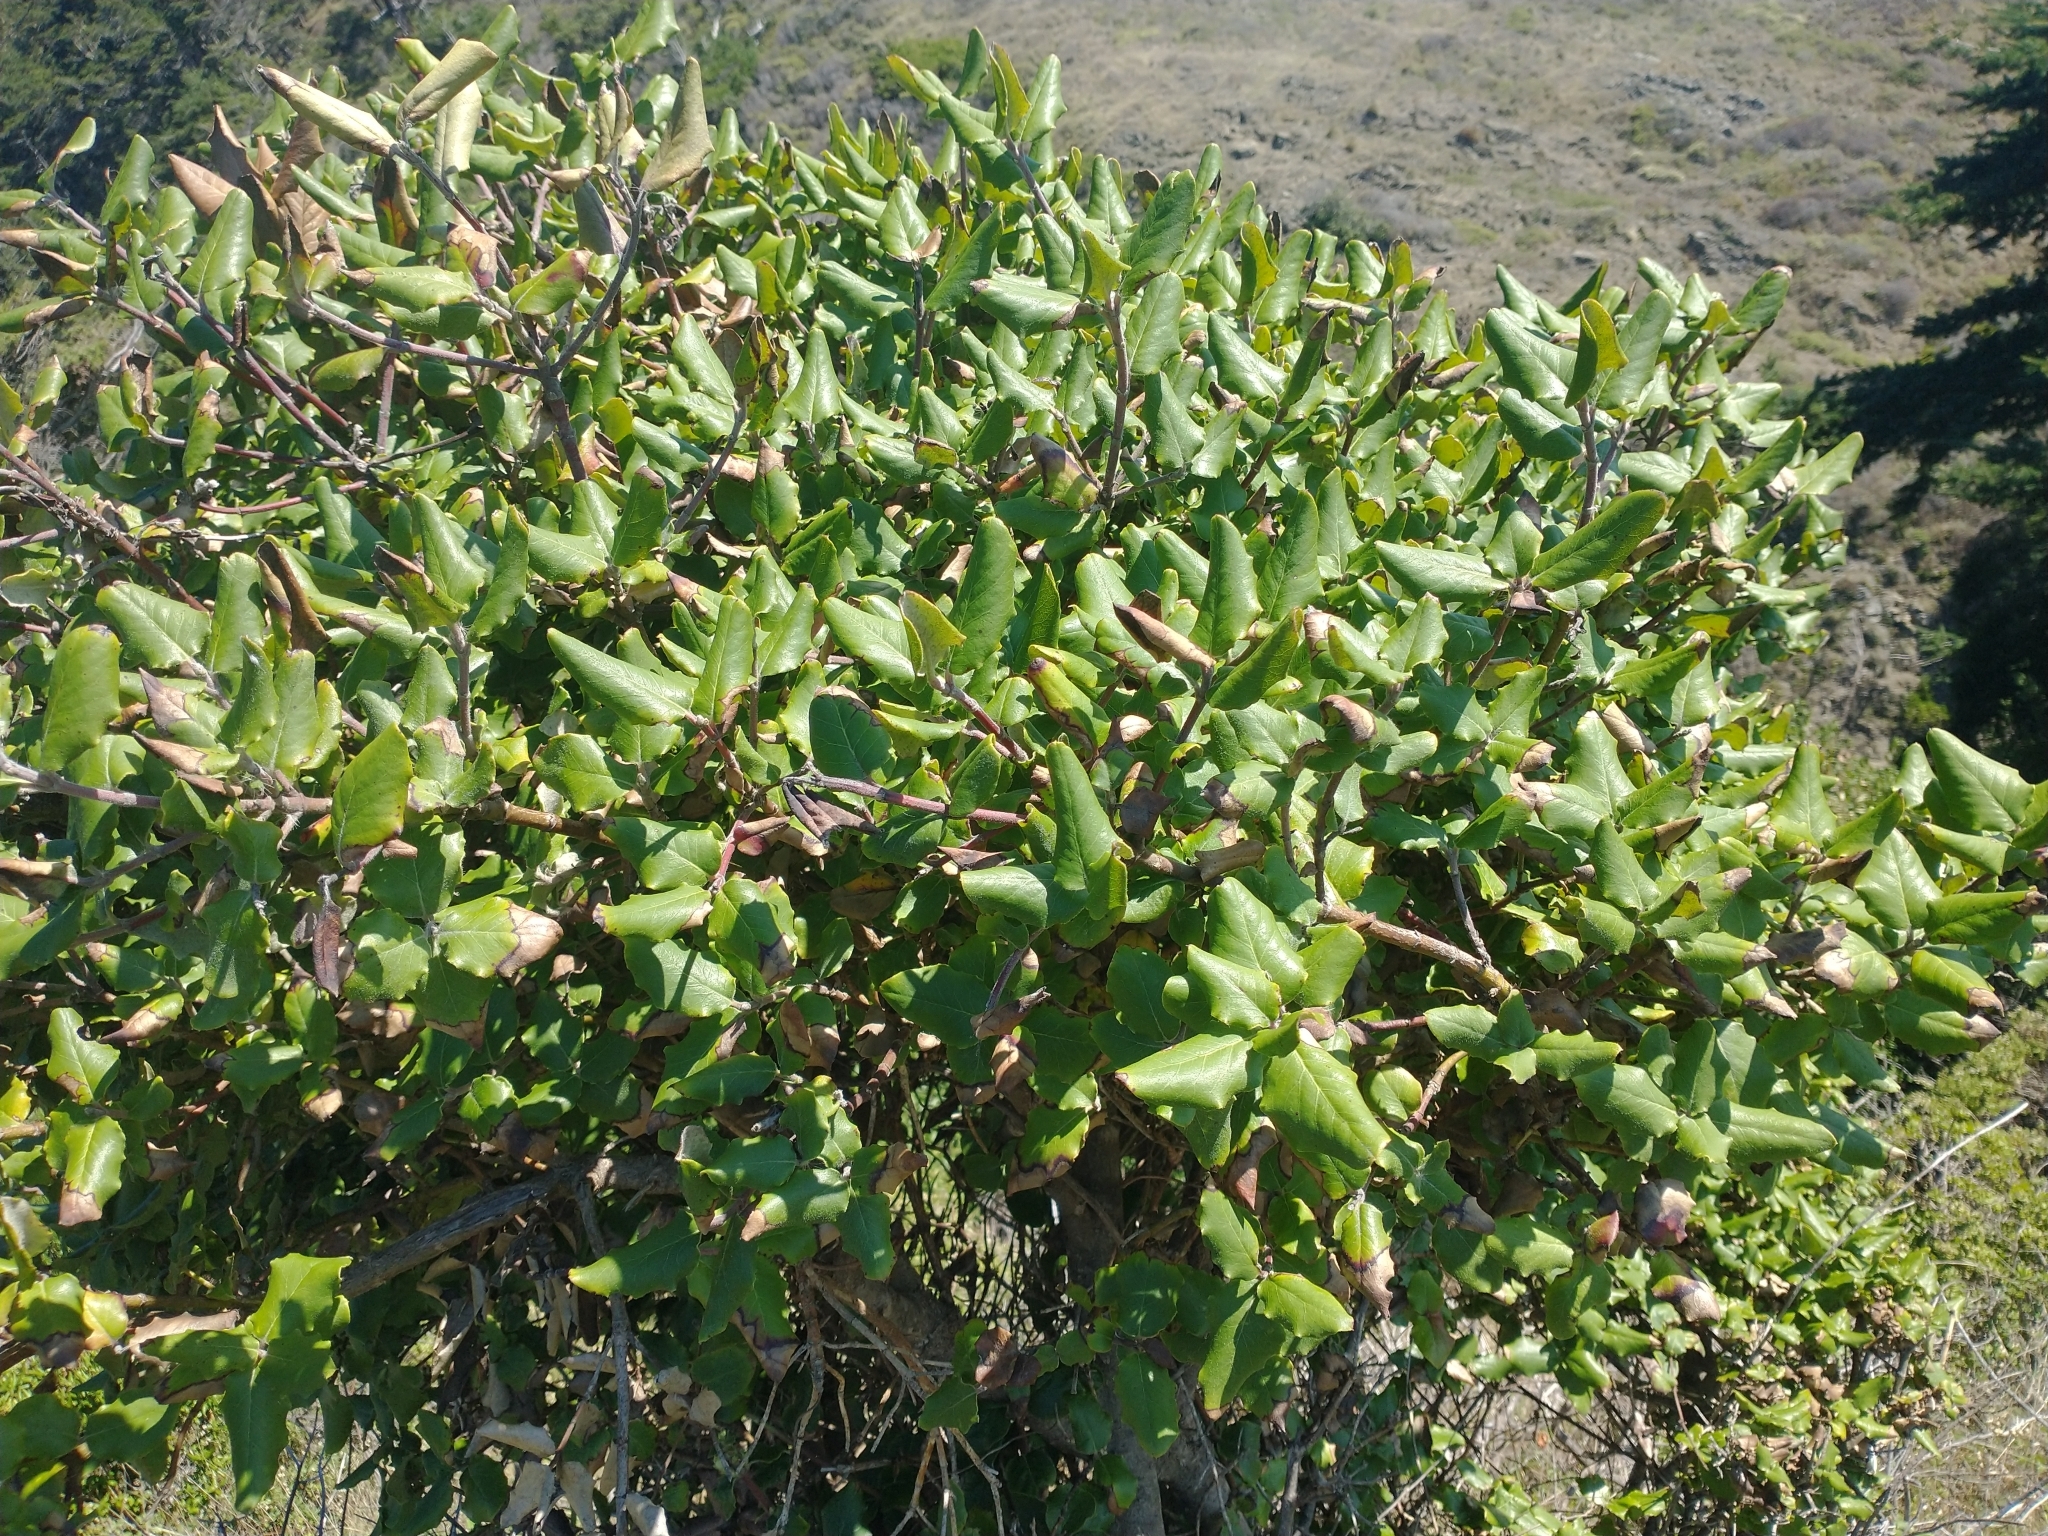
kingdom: Plantae
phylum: Tracheophyta
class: Magnoliopsida
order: Garryales
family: Garryaceae
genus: Garrya
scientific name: Garrya elliptica
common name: Silk-tassel
